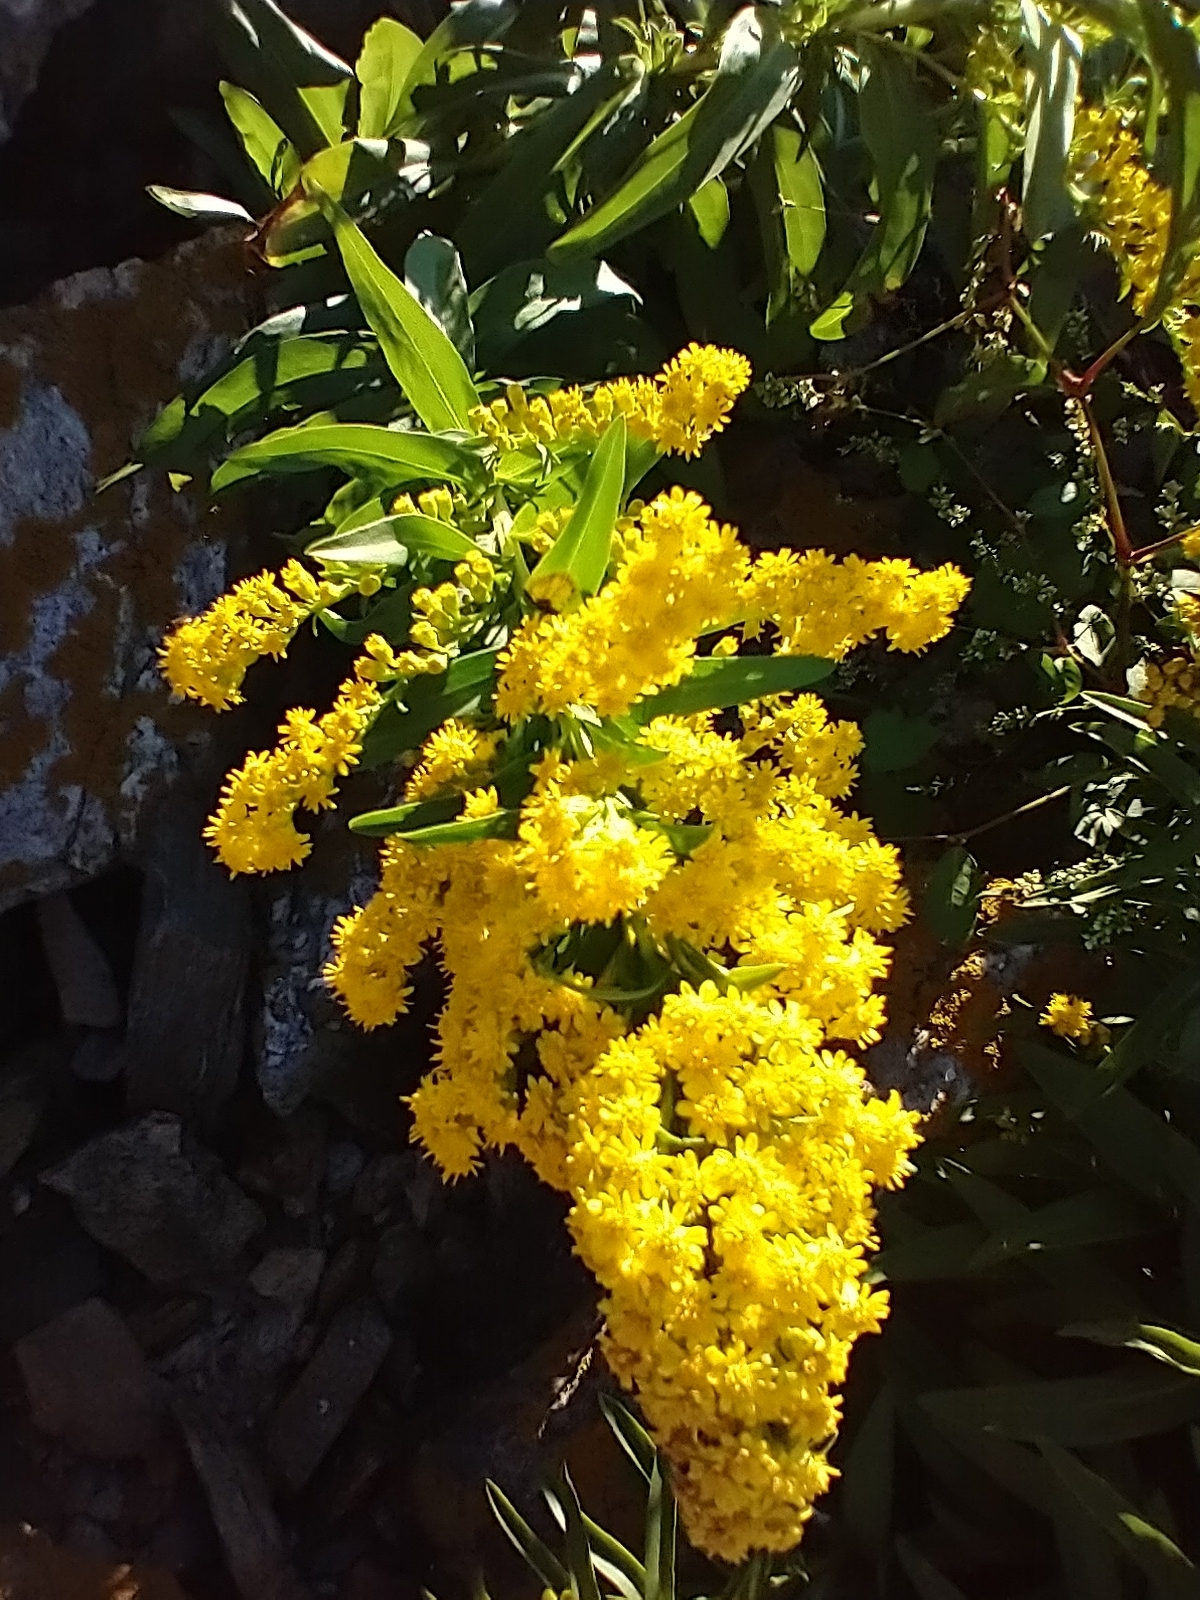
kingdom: Plantae
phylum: Tracheophyta
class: Magnoliopsida
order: Asterales
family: Asteraceae
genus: Solidago
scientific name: Solidago sempervirens
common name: Salt-marsh goldenrod
